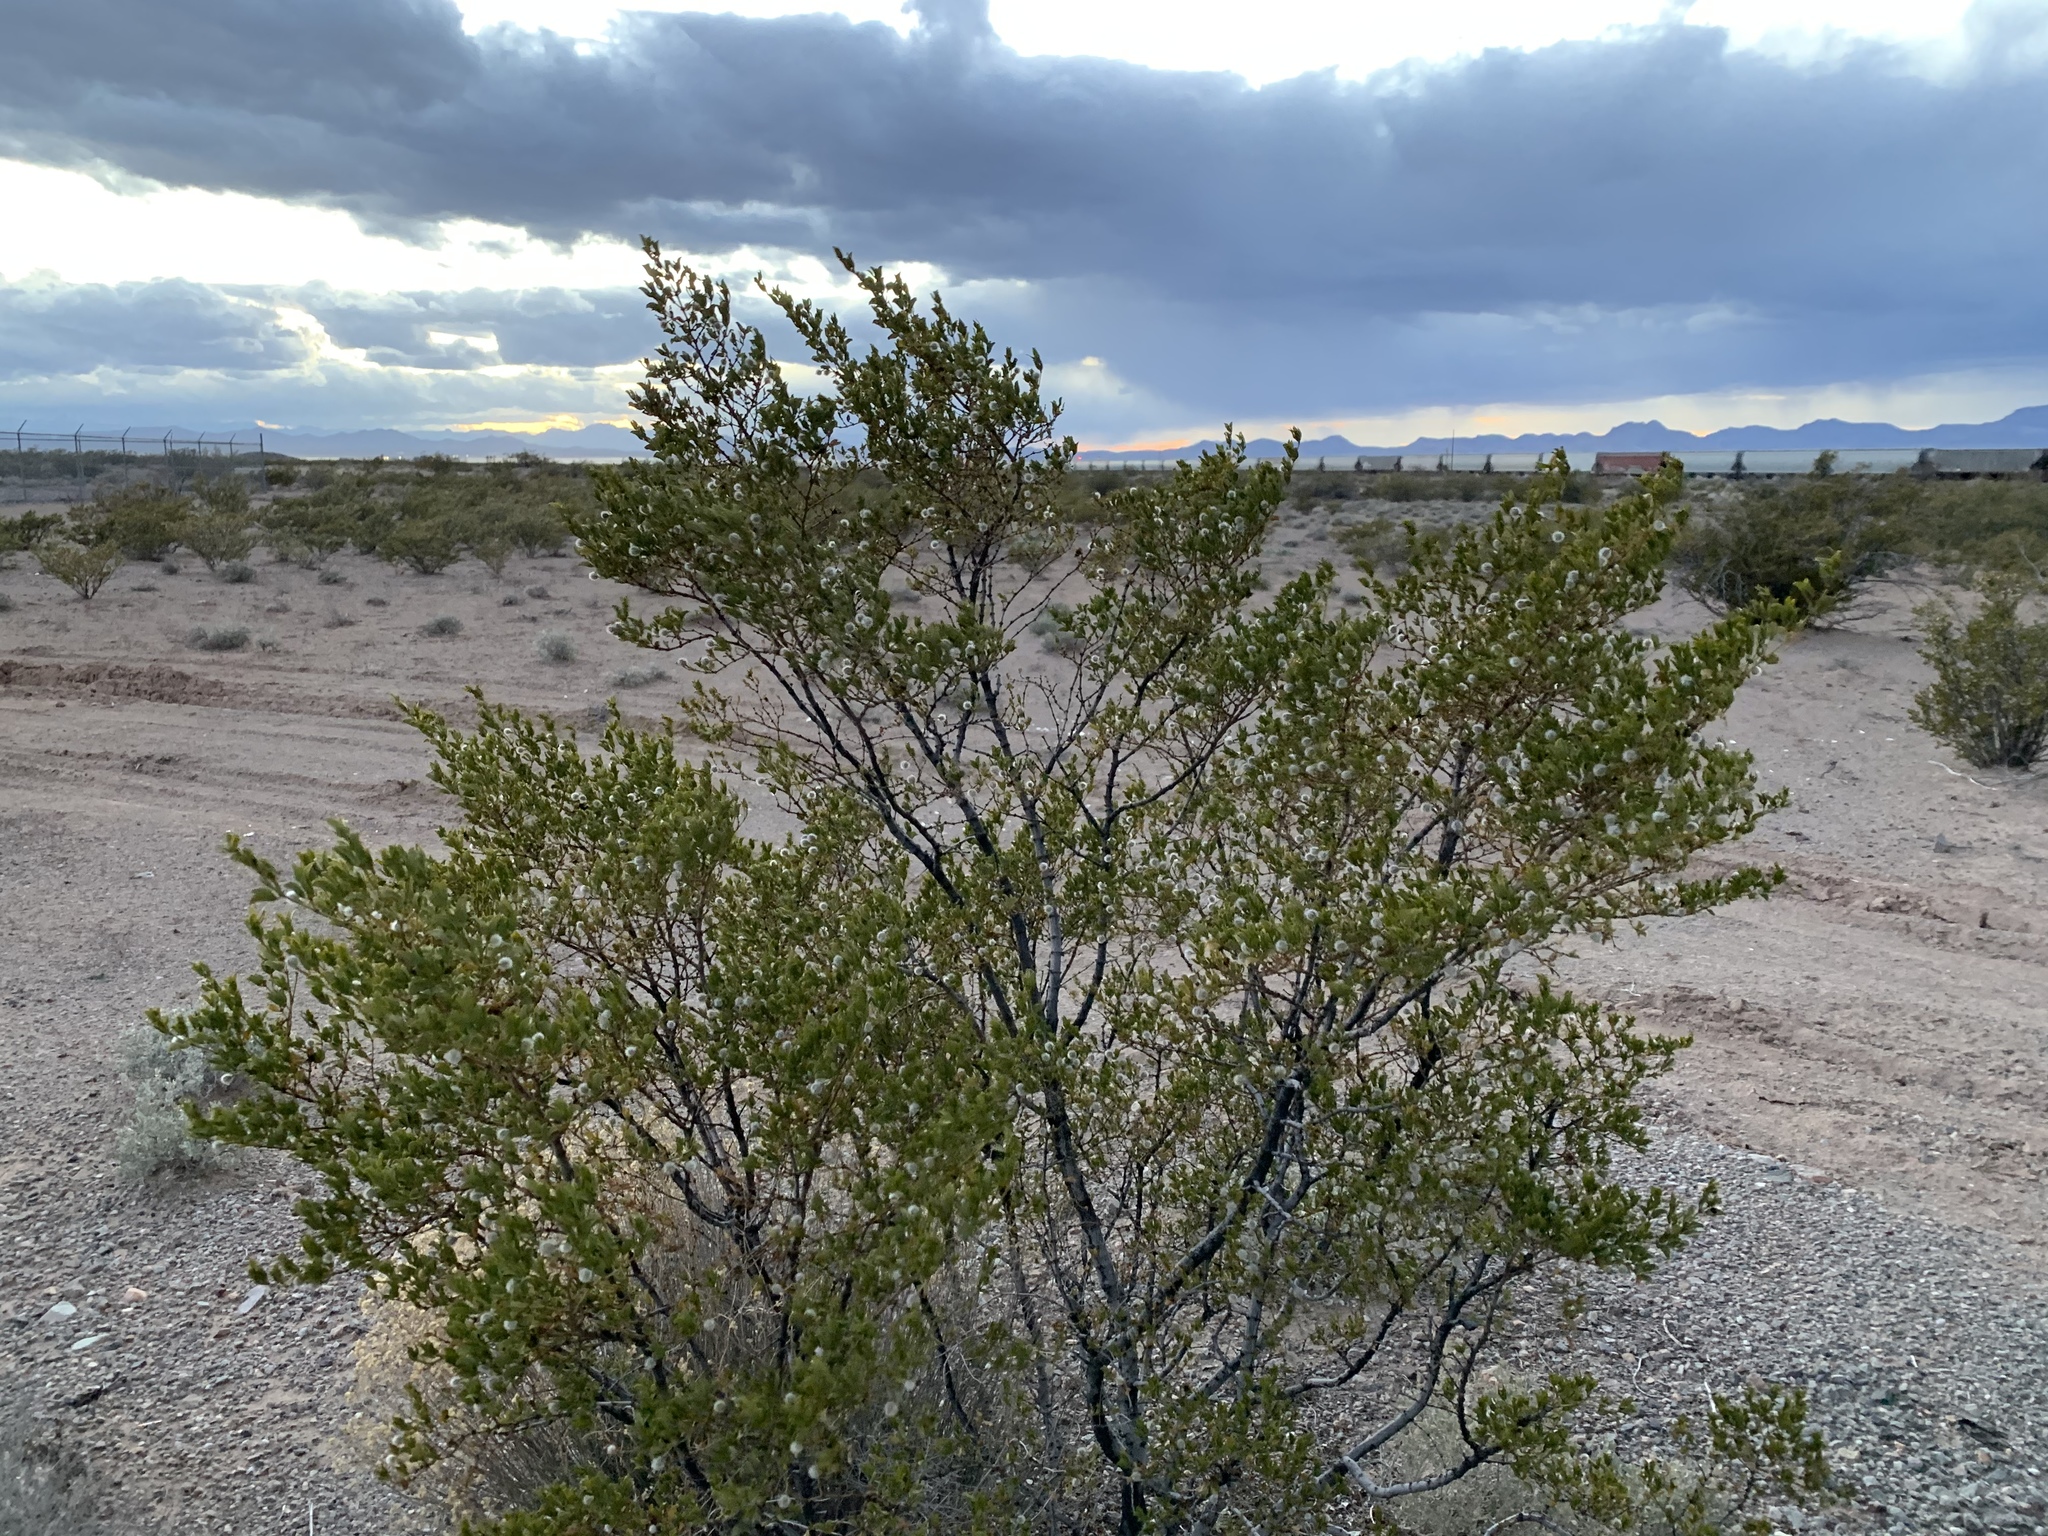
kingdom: Plantae
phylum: Tracheophyta
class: Magnoliopsida
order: Zygophyllales
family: Zygophyllaceae
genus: Larrea
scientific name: Larrea tridentata
